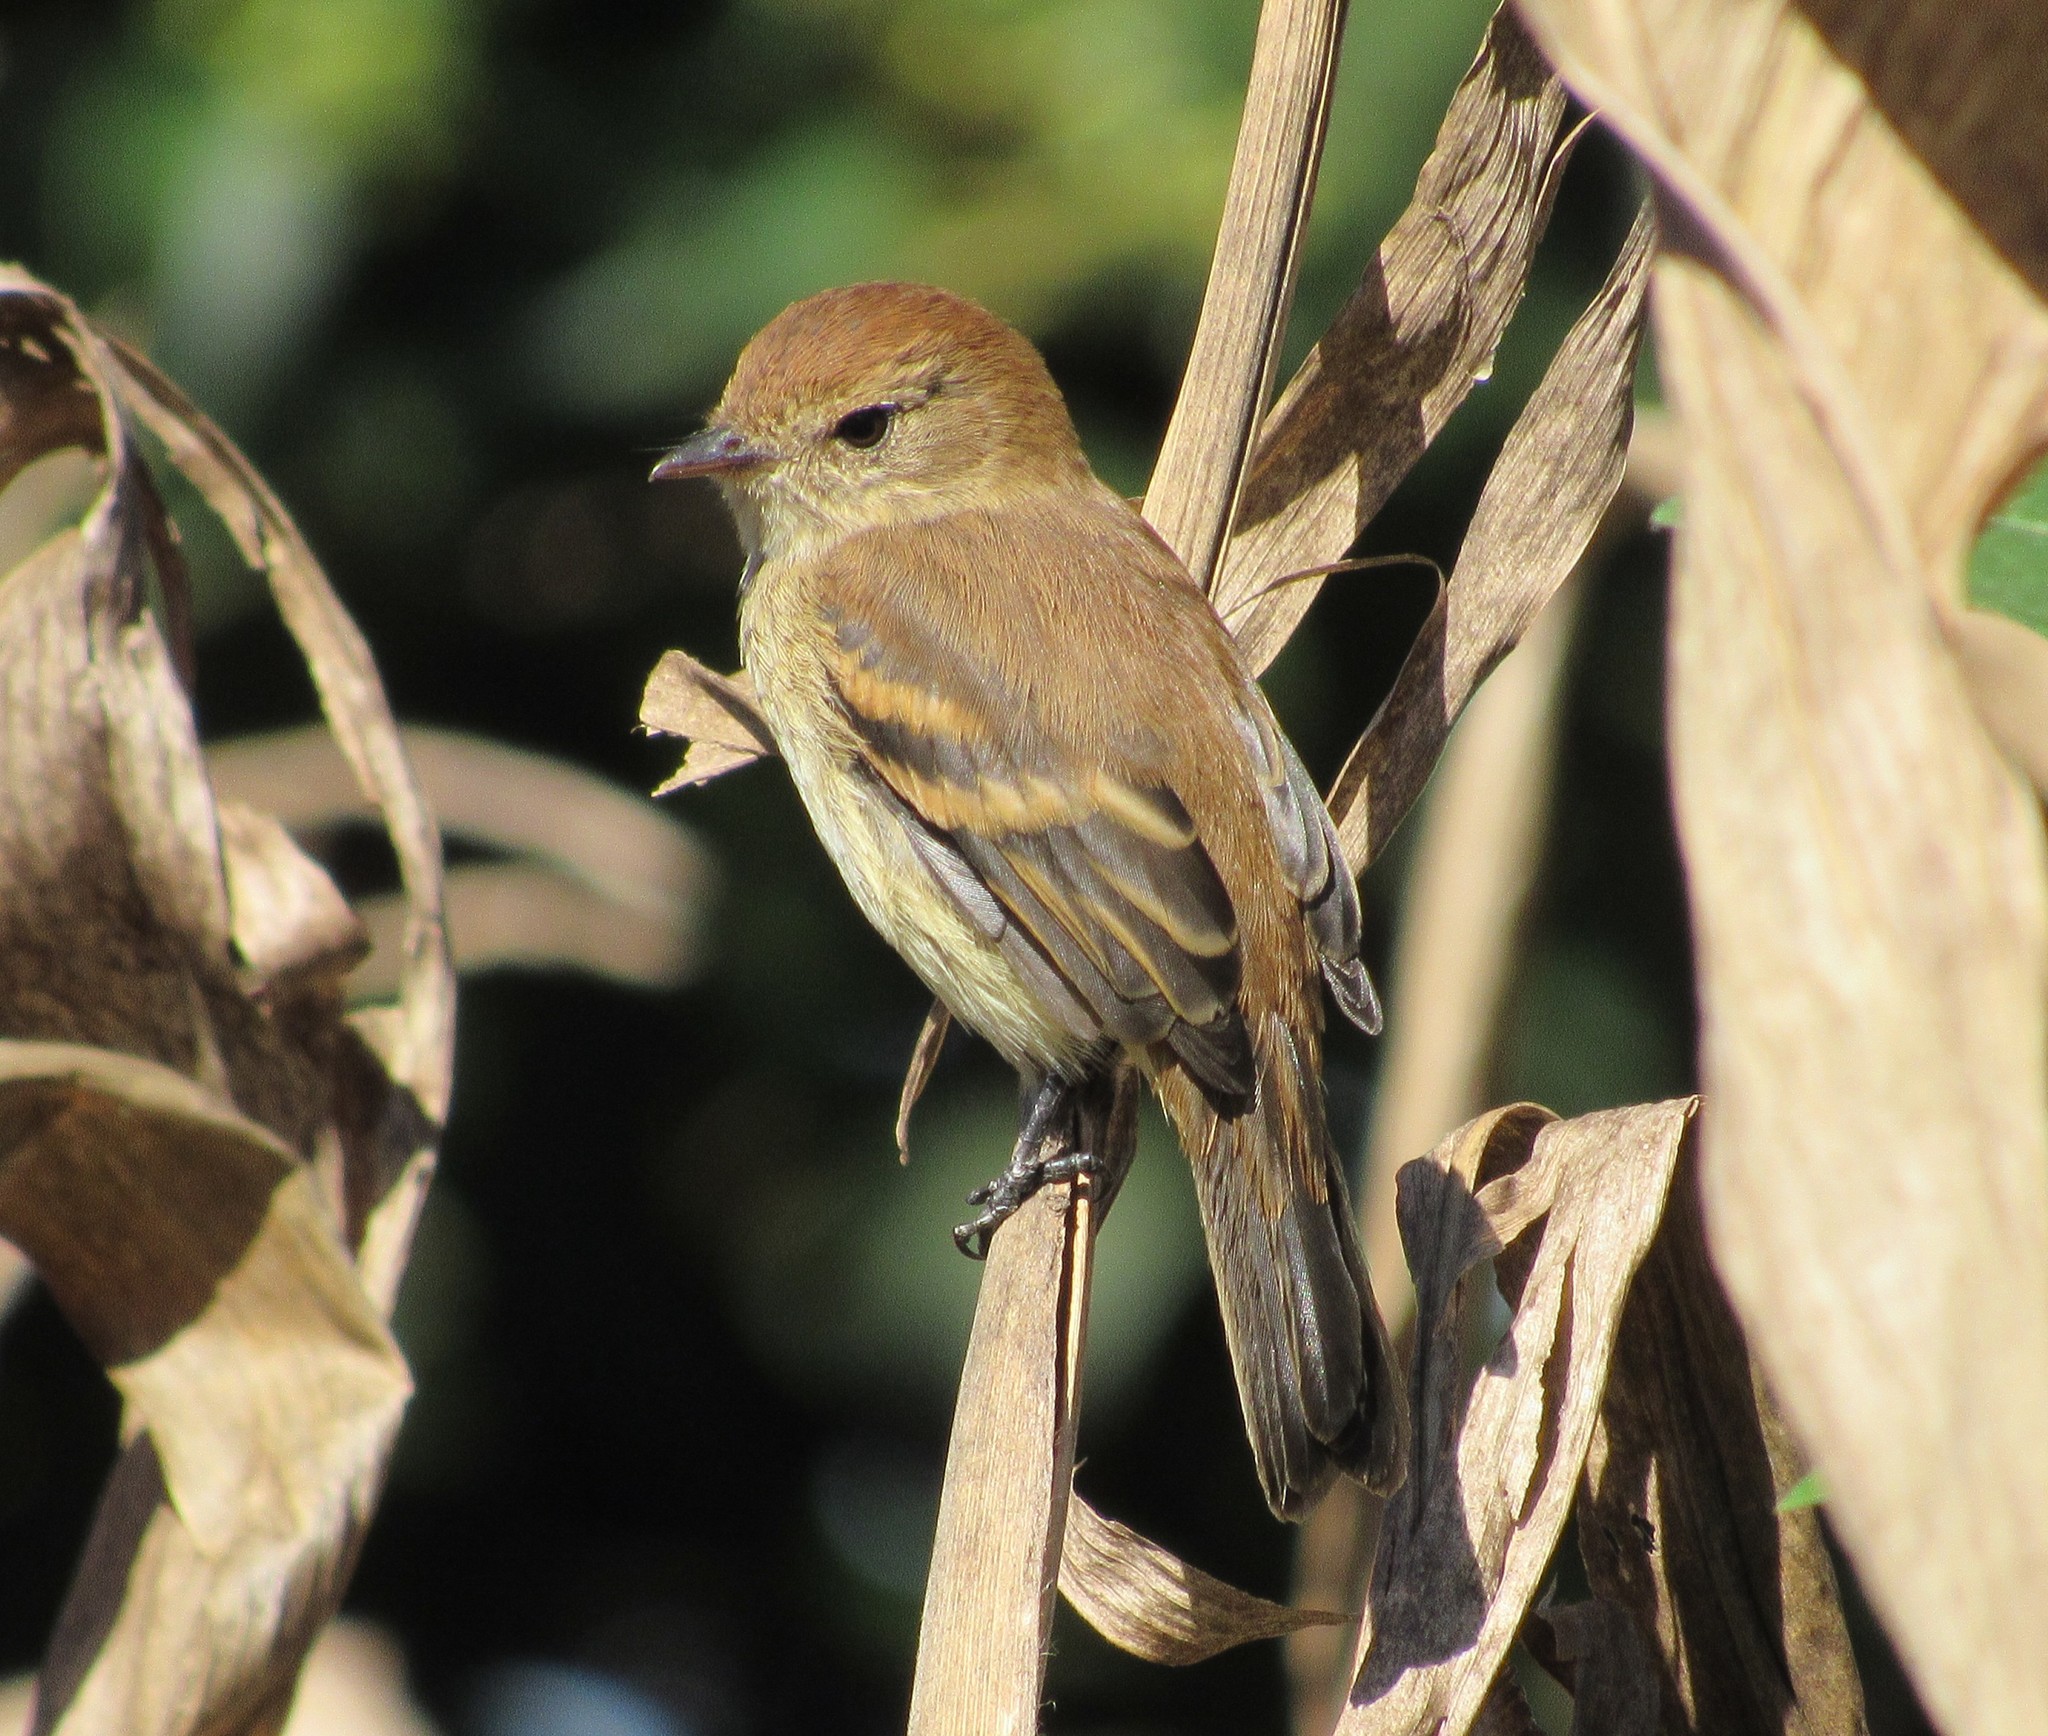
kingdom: Animalia
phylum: Chordata
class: Aves
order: Passeriformes
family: Tyrannidae
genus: Myiophobus
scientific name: Myiophobus fasciatus
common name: Bran-colored flycatcher
